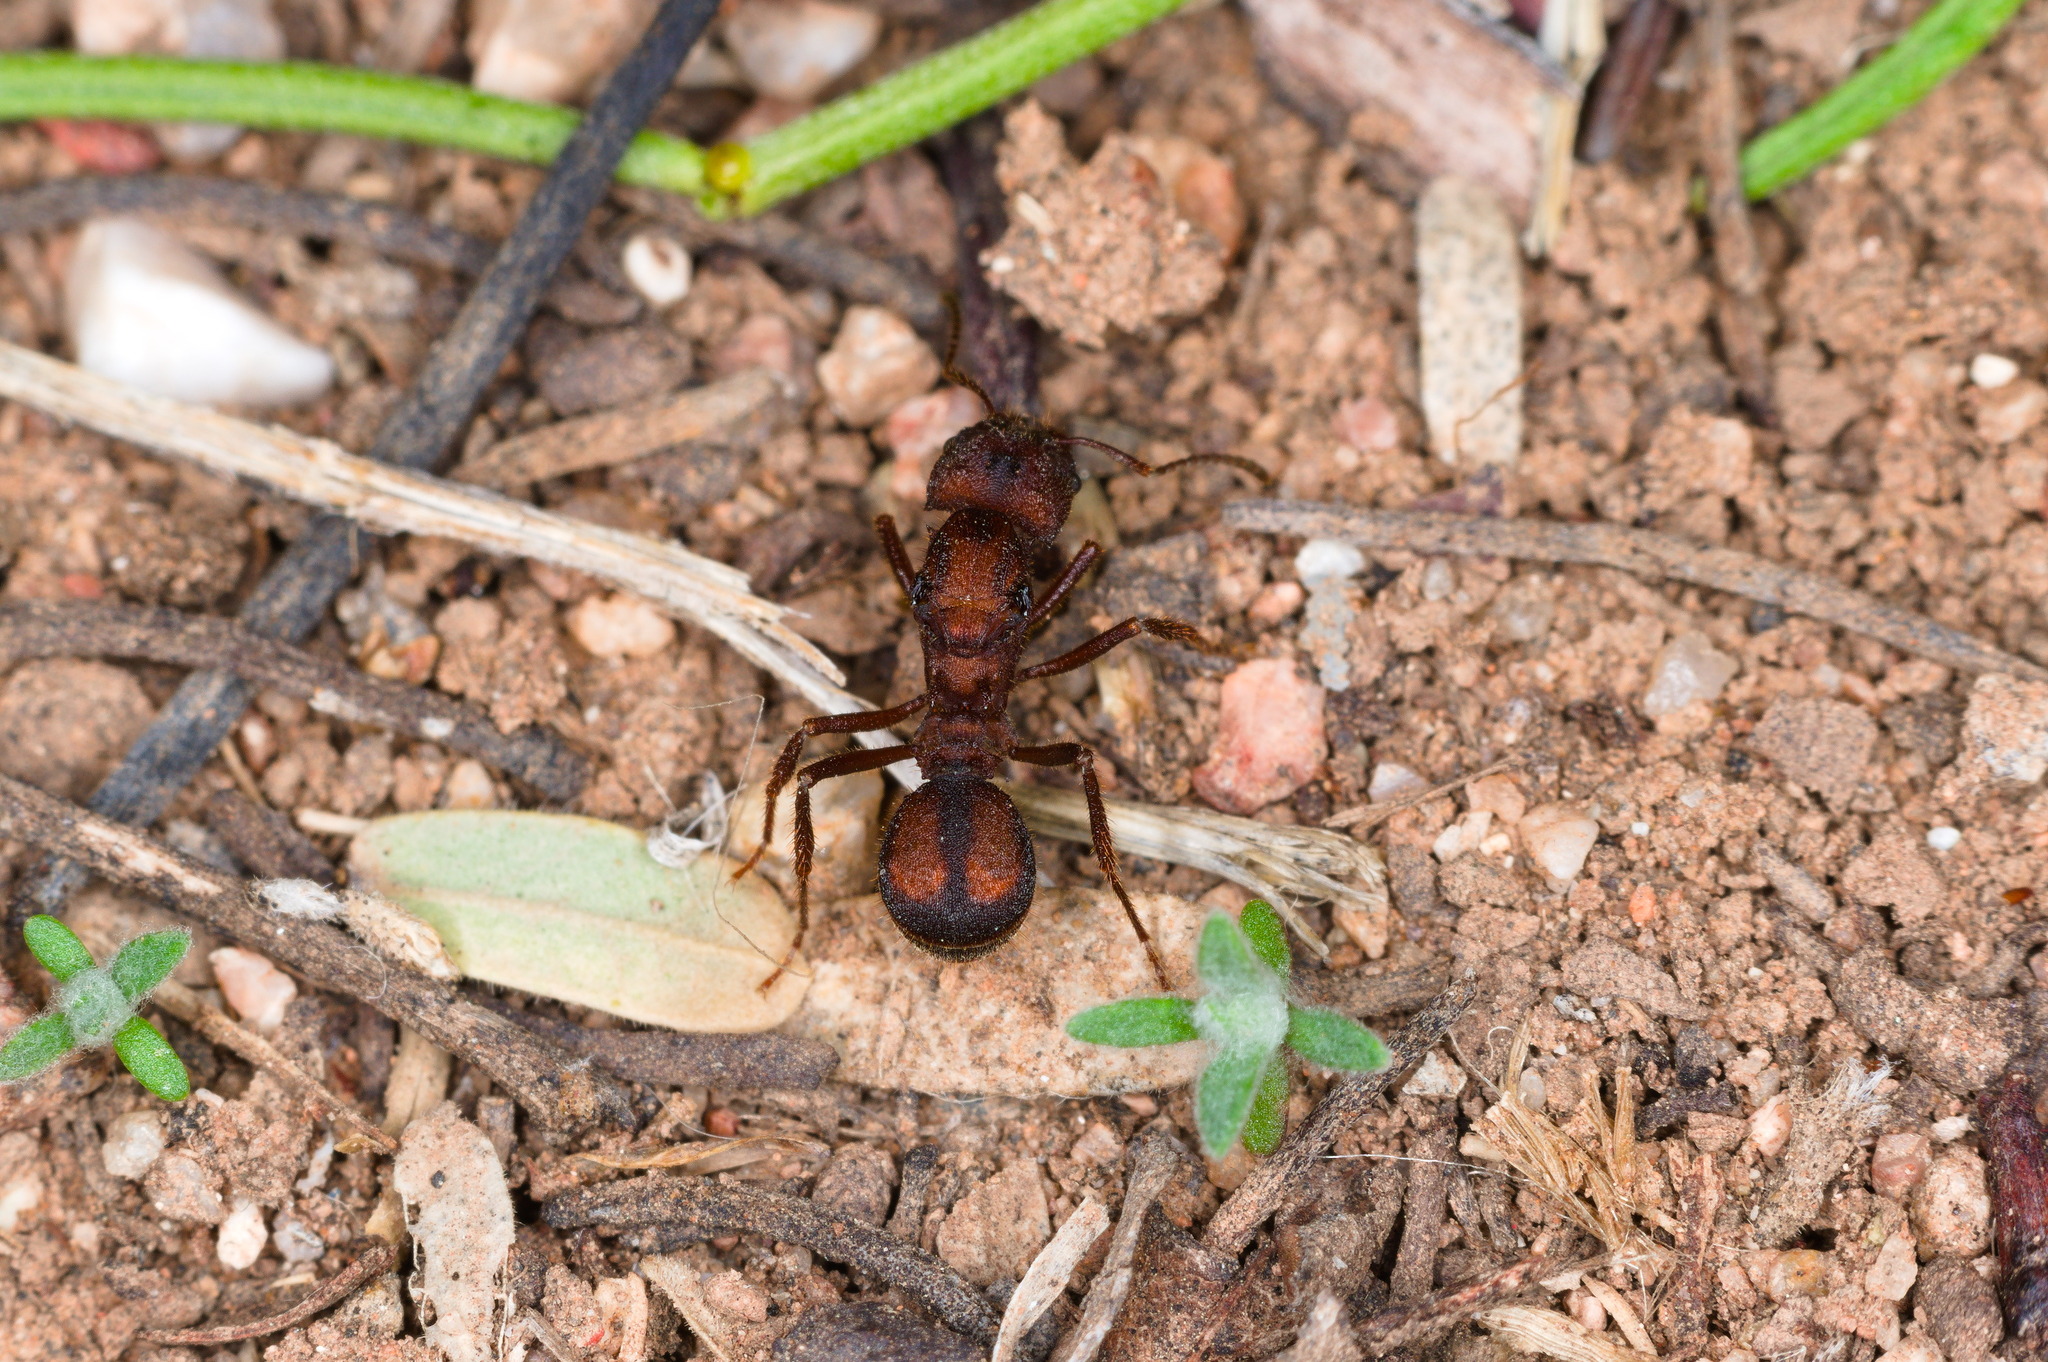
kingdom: Animalia
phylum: Arthropoda
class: Insecta
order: Hymenoptera
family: Formicidae
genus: Acromyrmex
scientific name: Acromyrmex versicolor
